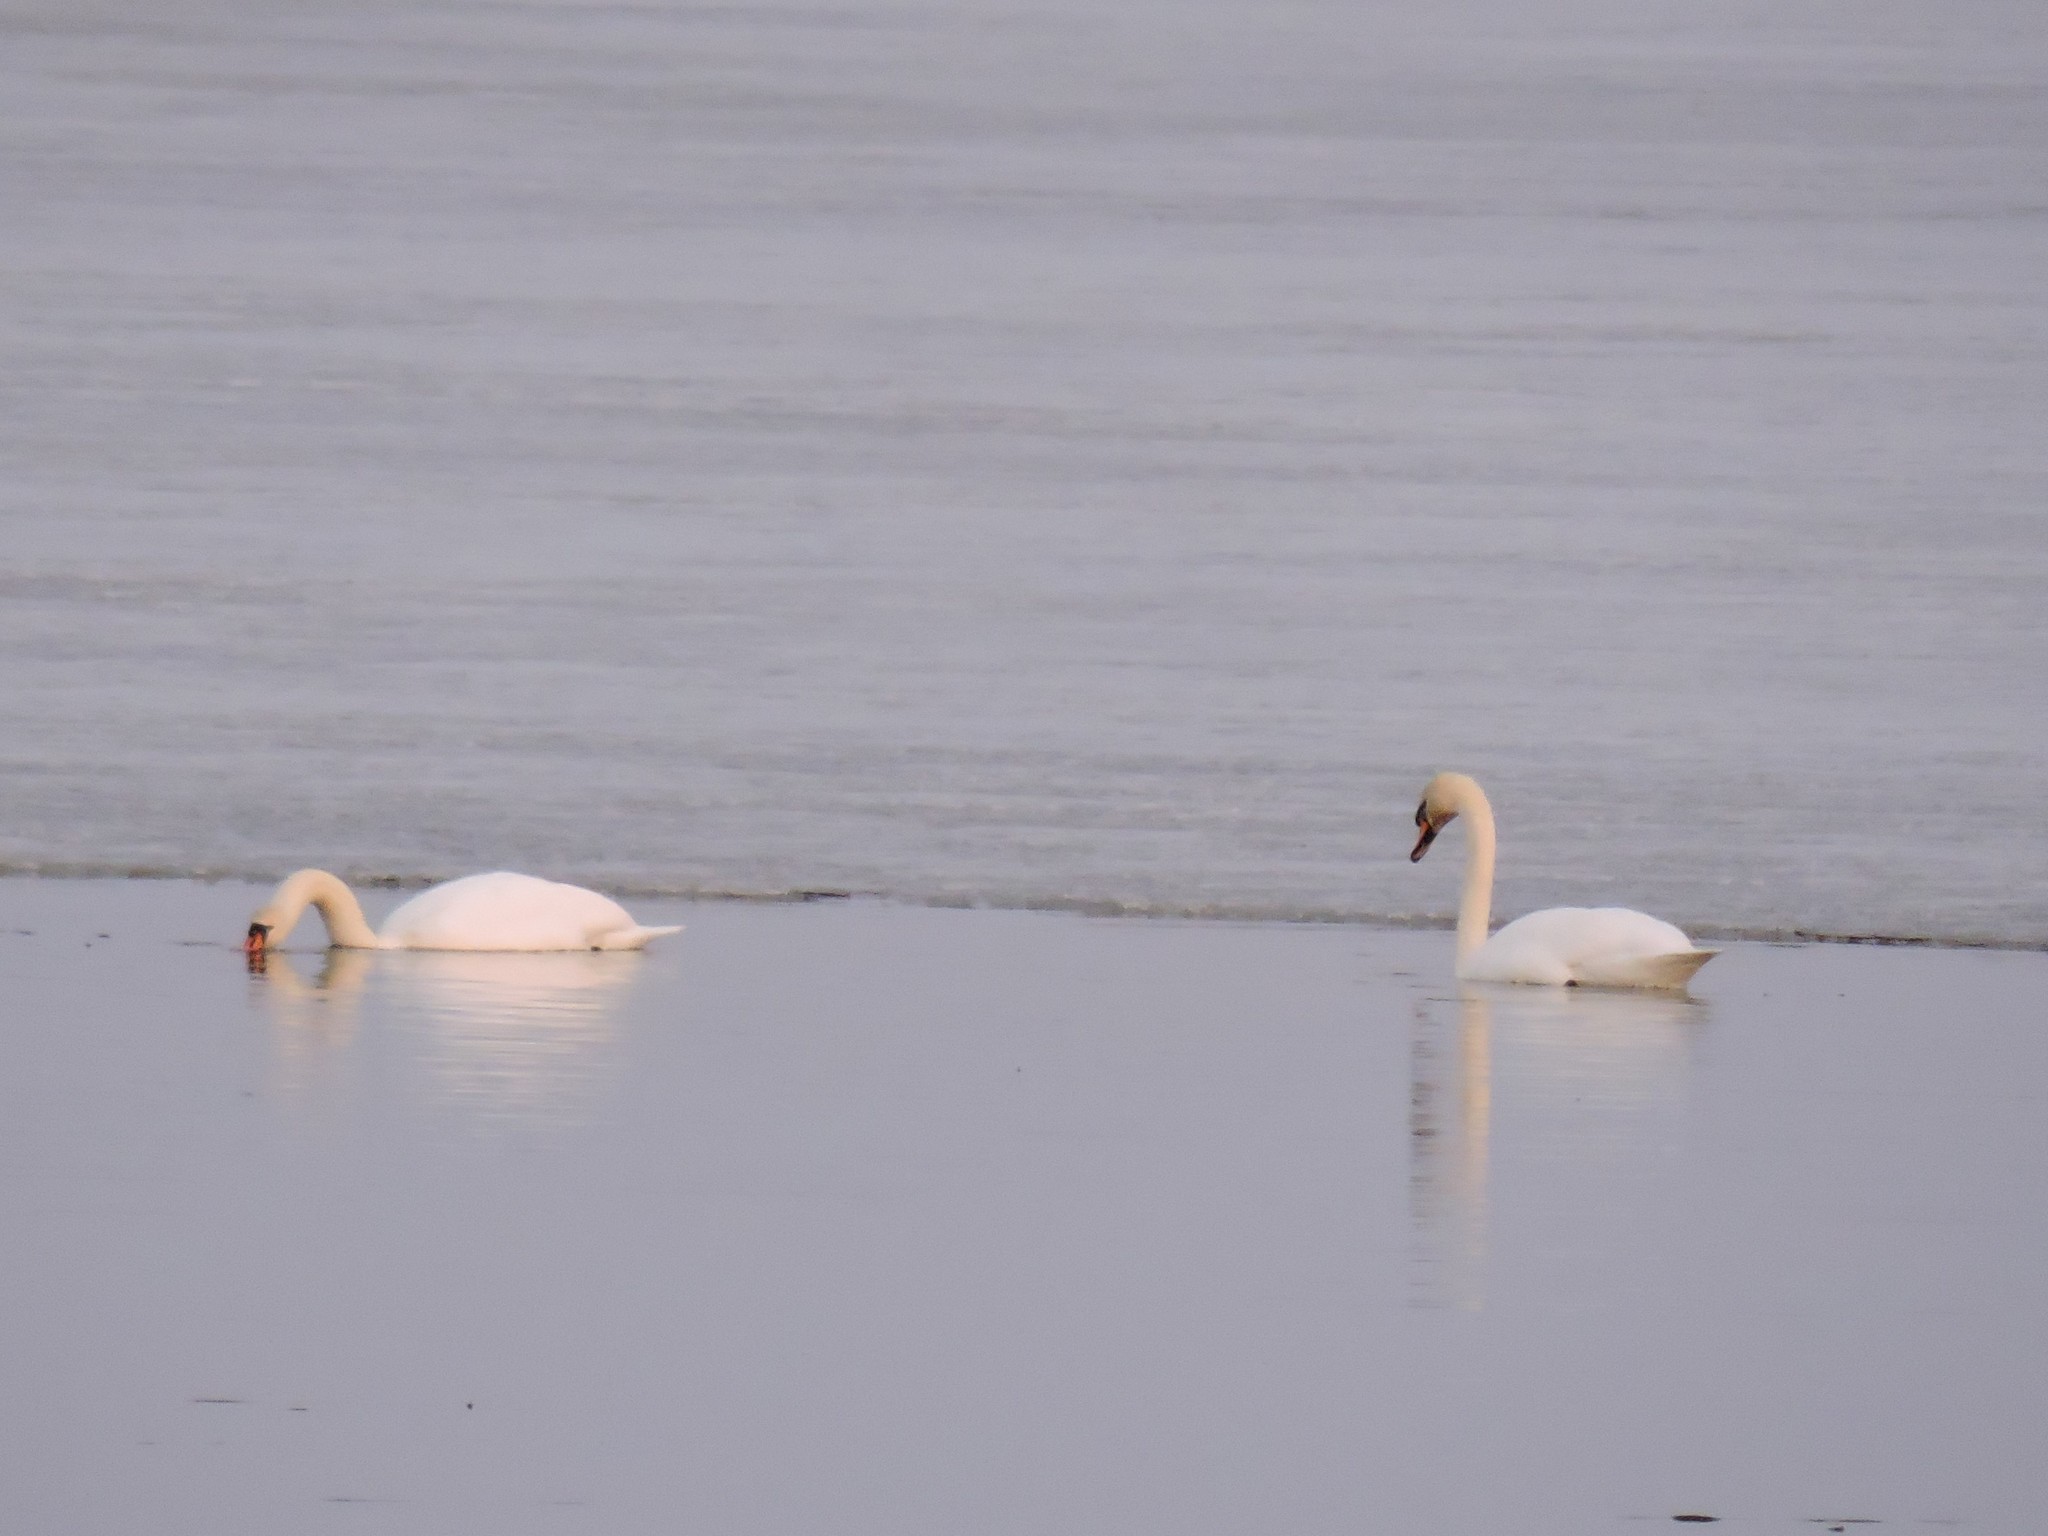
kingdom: Animalia
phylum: Chordata
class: Aves
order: Anseriformes
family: Anatidae
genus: Cygnus
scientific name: Cygnus olor
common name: Mute swan
